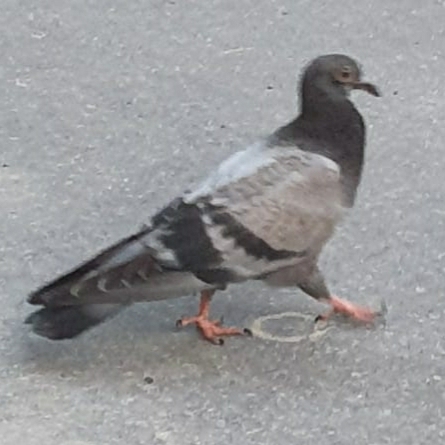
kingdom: Animalia
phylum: Chordata
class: Aves
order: Columbiformes
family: Columbidae
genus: Columba
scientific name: Columba livia
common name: Rock pigeon
